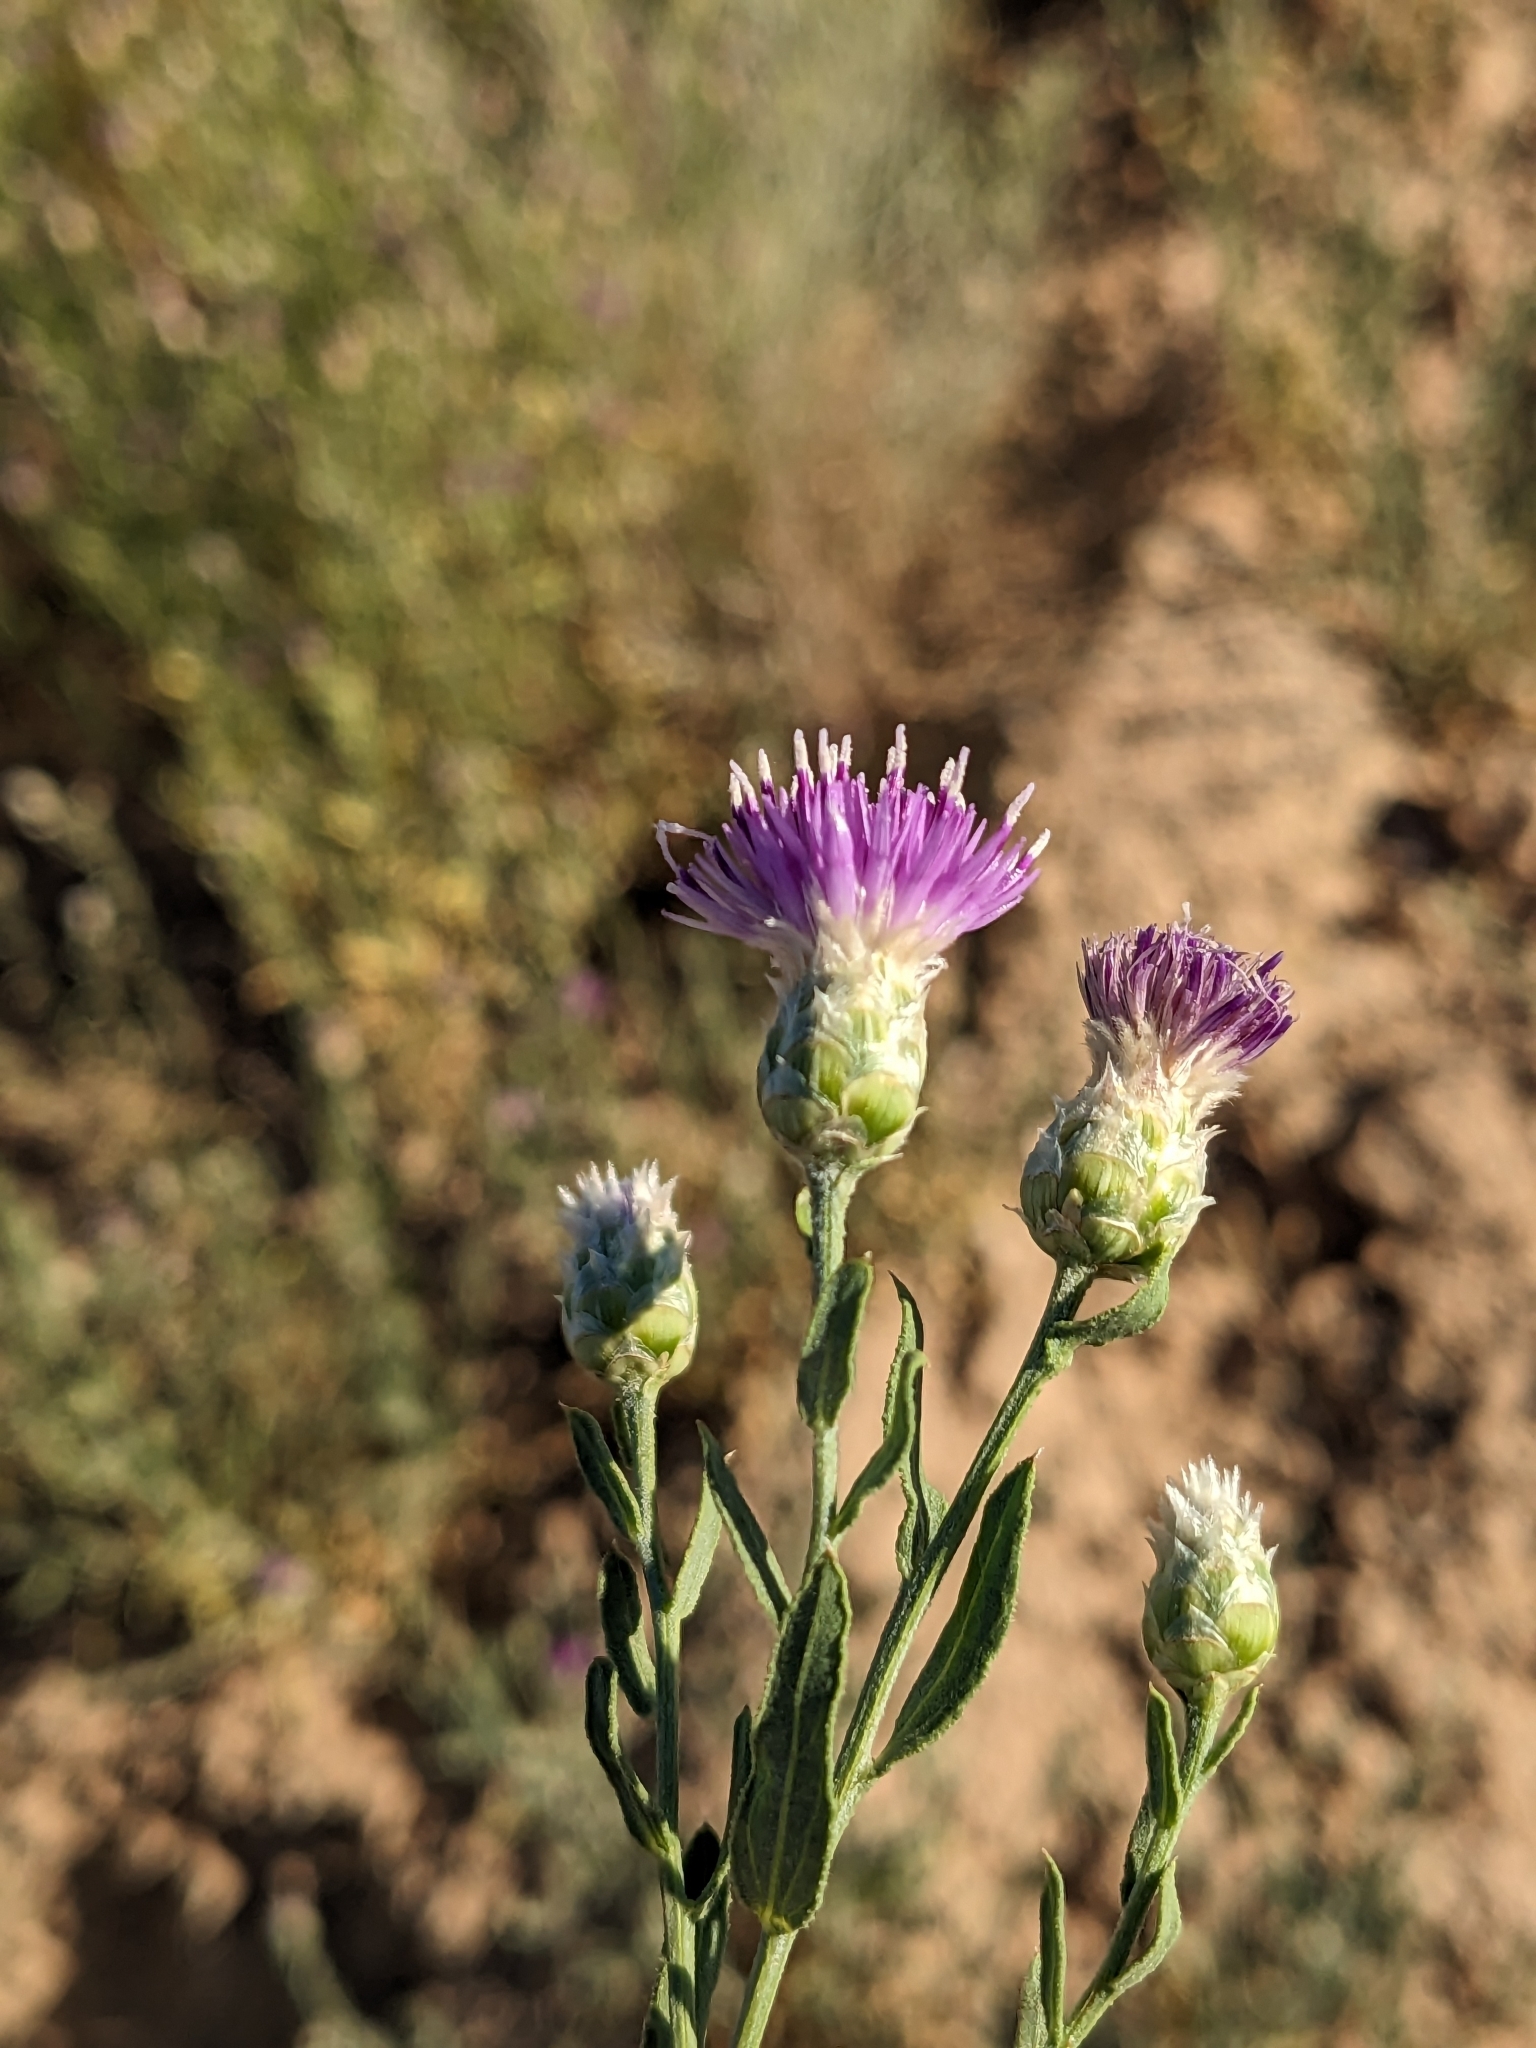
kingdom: Plantae
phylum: Tracheophyta
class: Magnoliopsida
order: Asterales
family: Asteraceae
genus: Leuzea
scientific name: Leuzea repens
